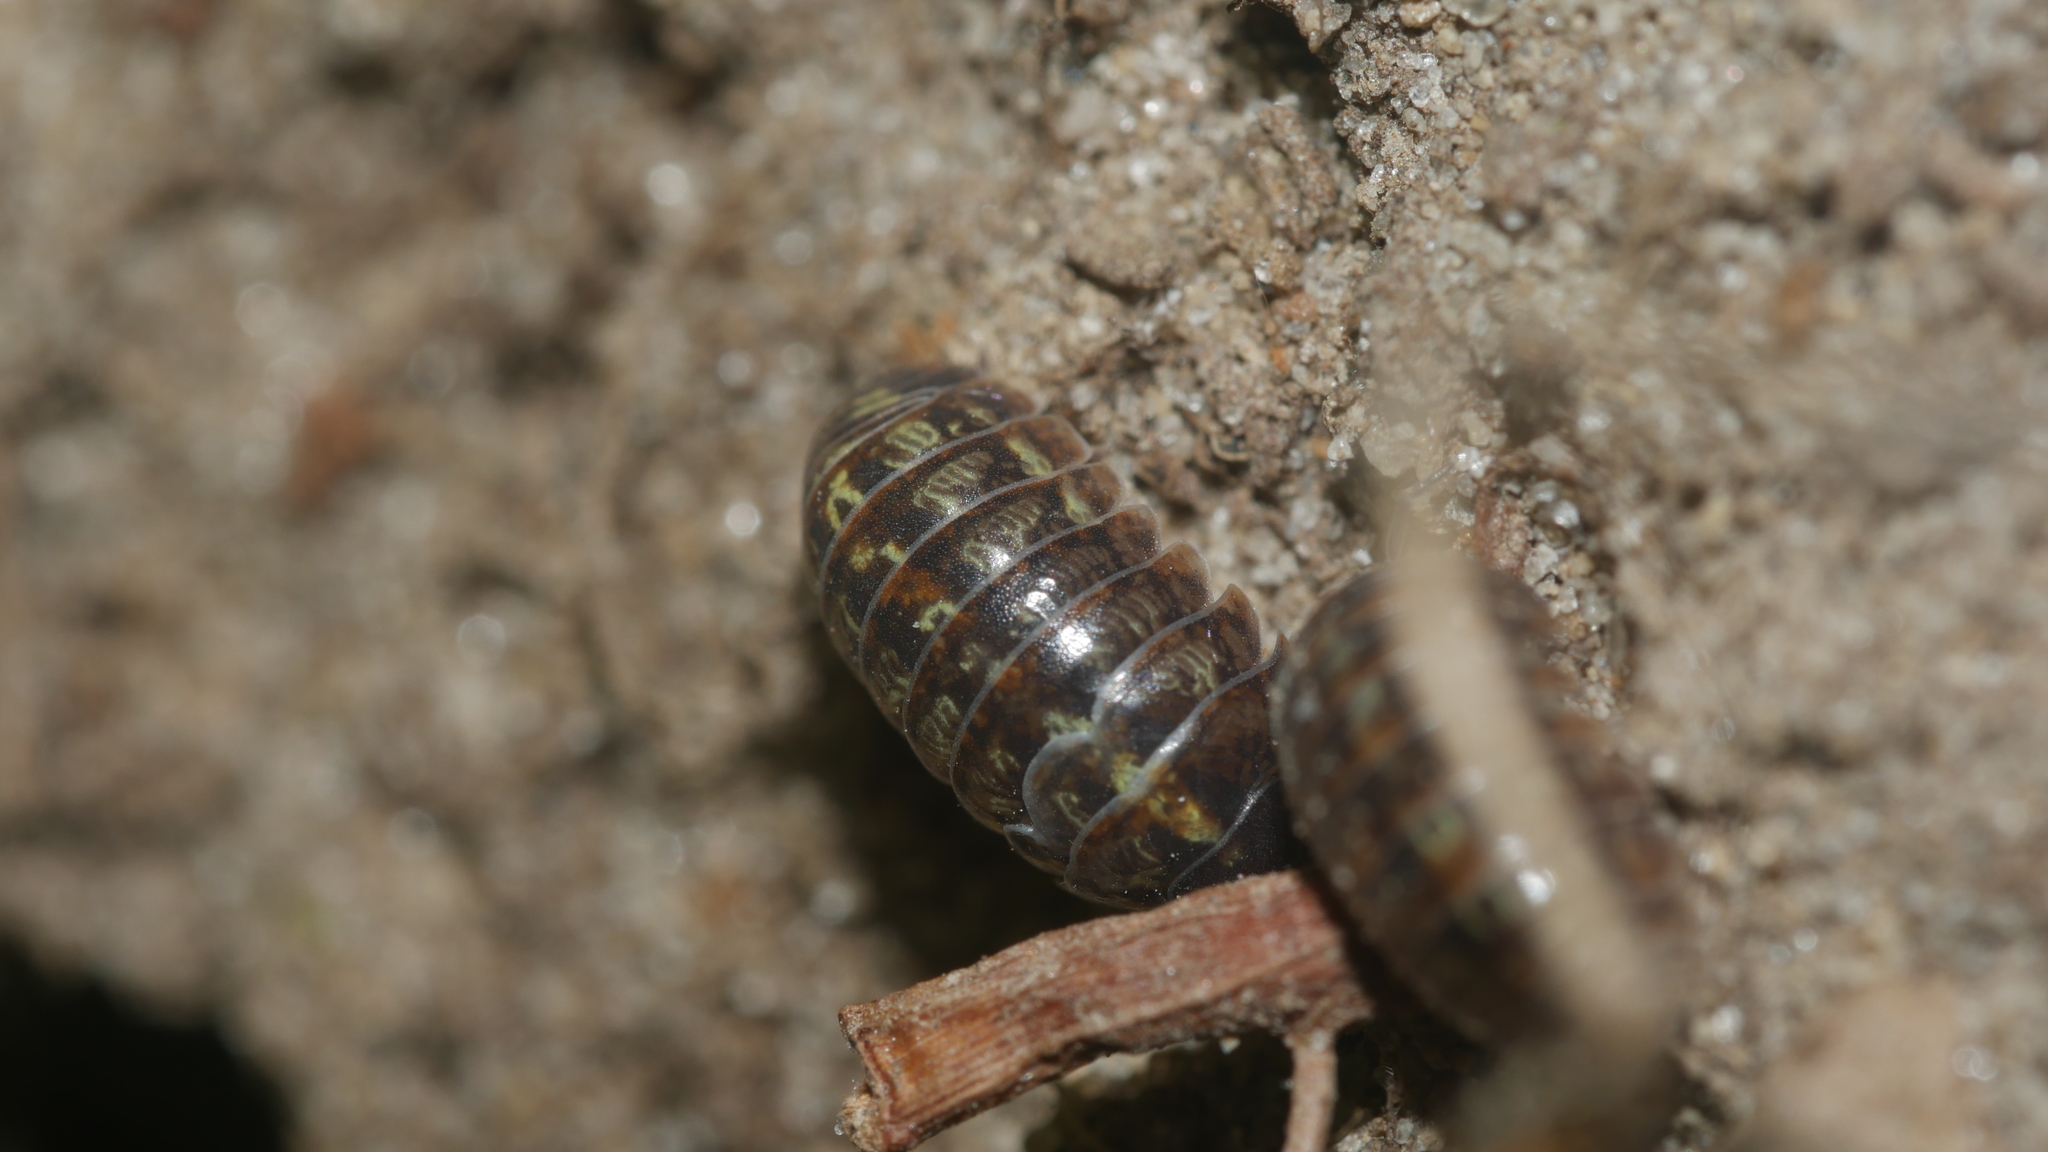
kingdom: Animalia
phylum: Arthropoda
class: Malacostraca
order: Isopoda
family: Armadillidiidae
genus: Armadillidium
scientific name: Armadillidium vulgare
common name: Common pill woodlouse
